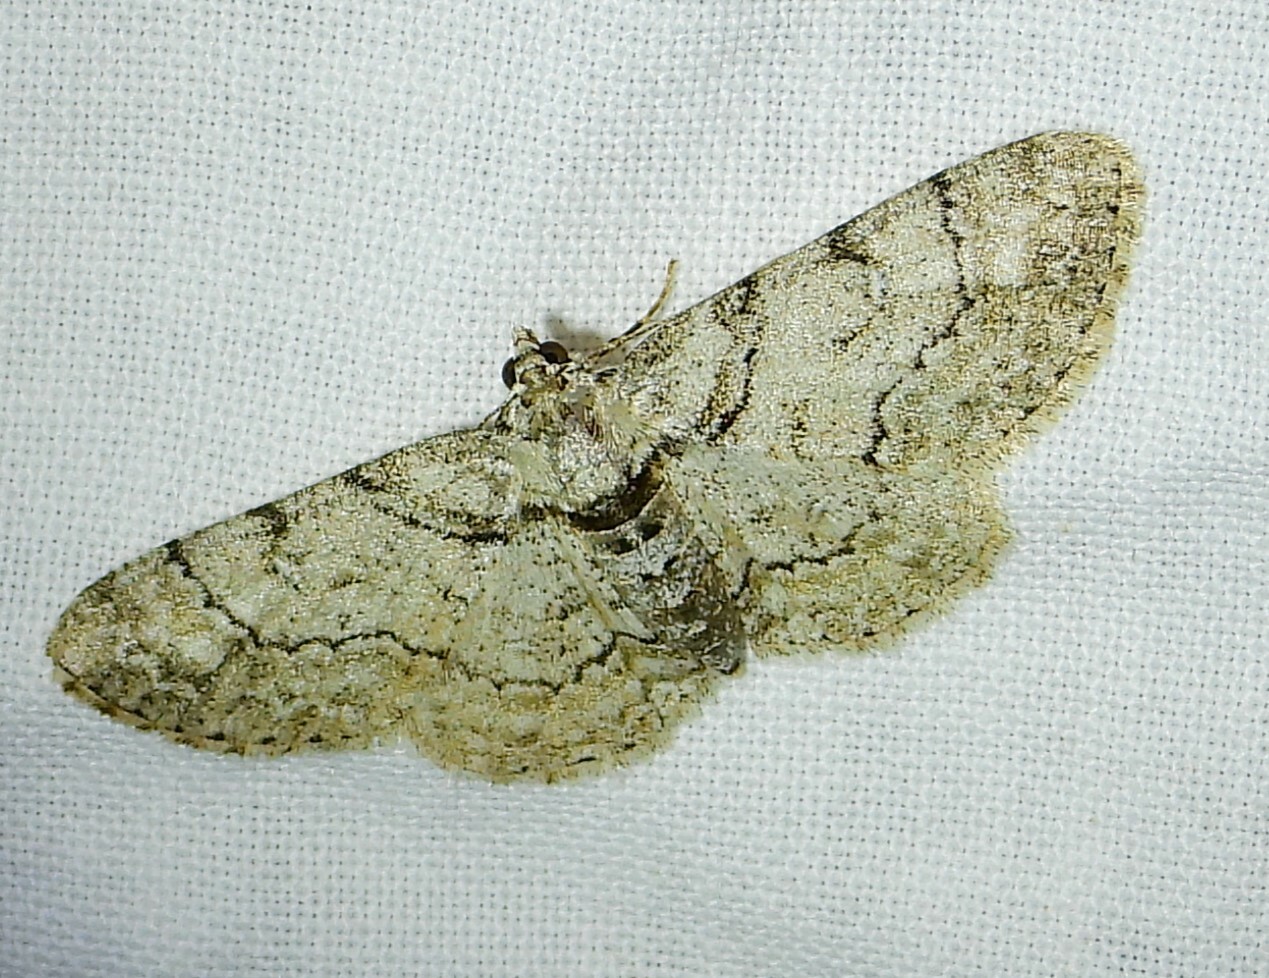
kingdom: Animalia
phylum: Arthropoda
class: Insecta
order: Lepidoptera
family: Geometridae
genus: Cleora
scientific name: Cleora sublunaria
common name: Double-lined gray
